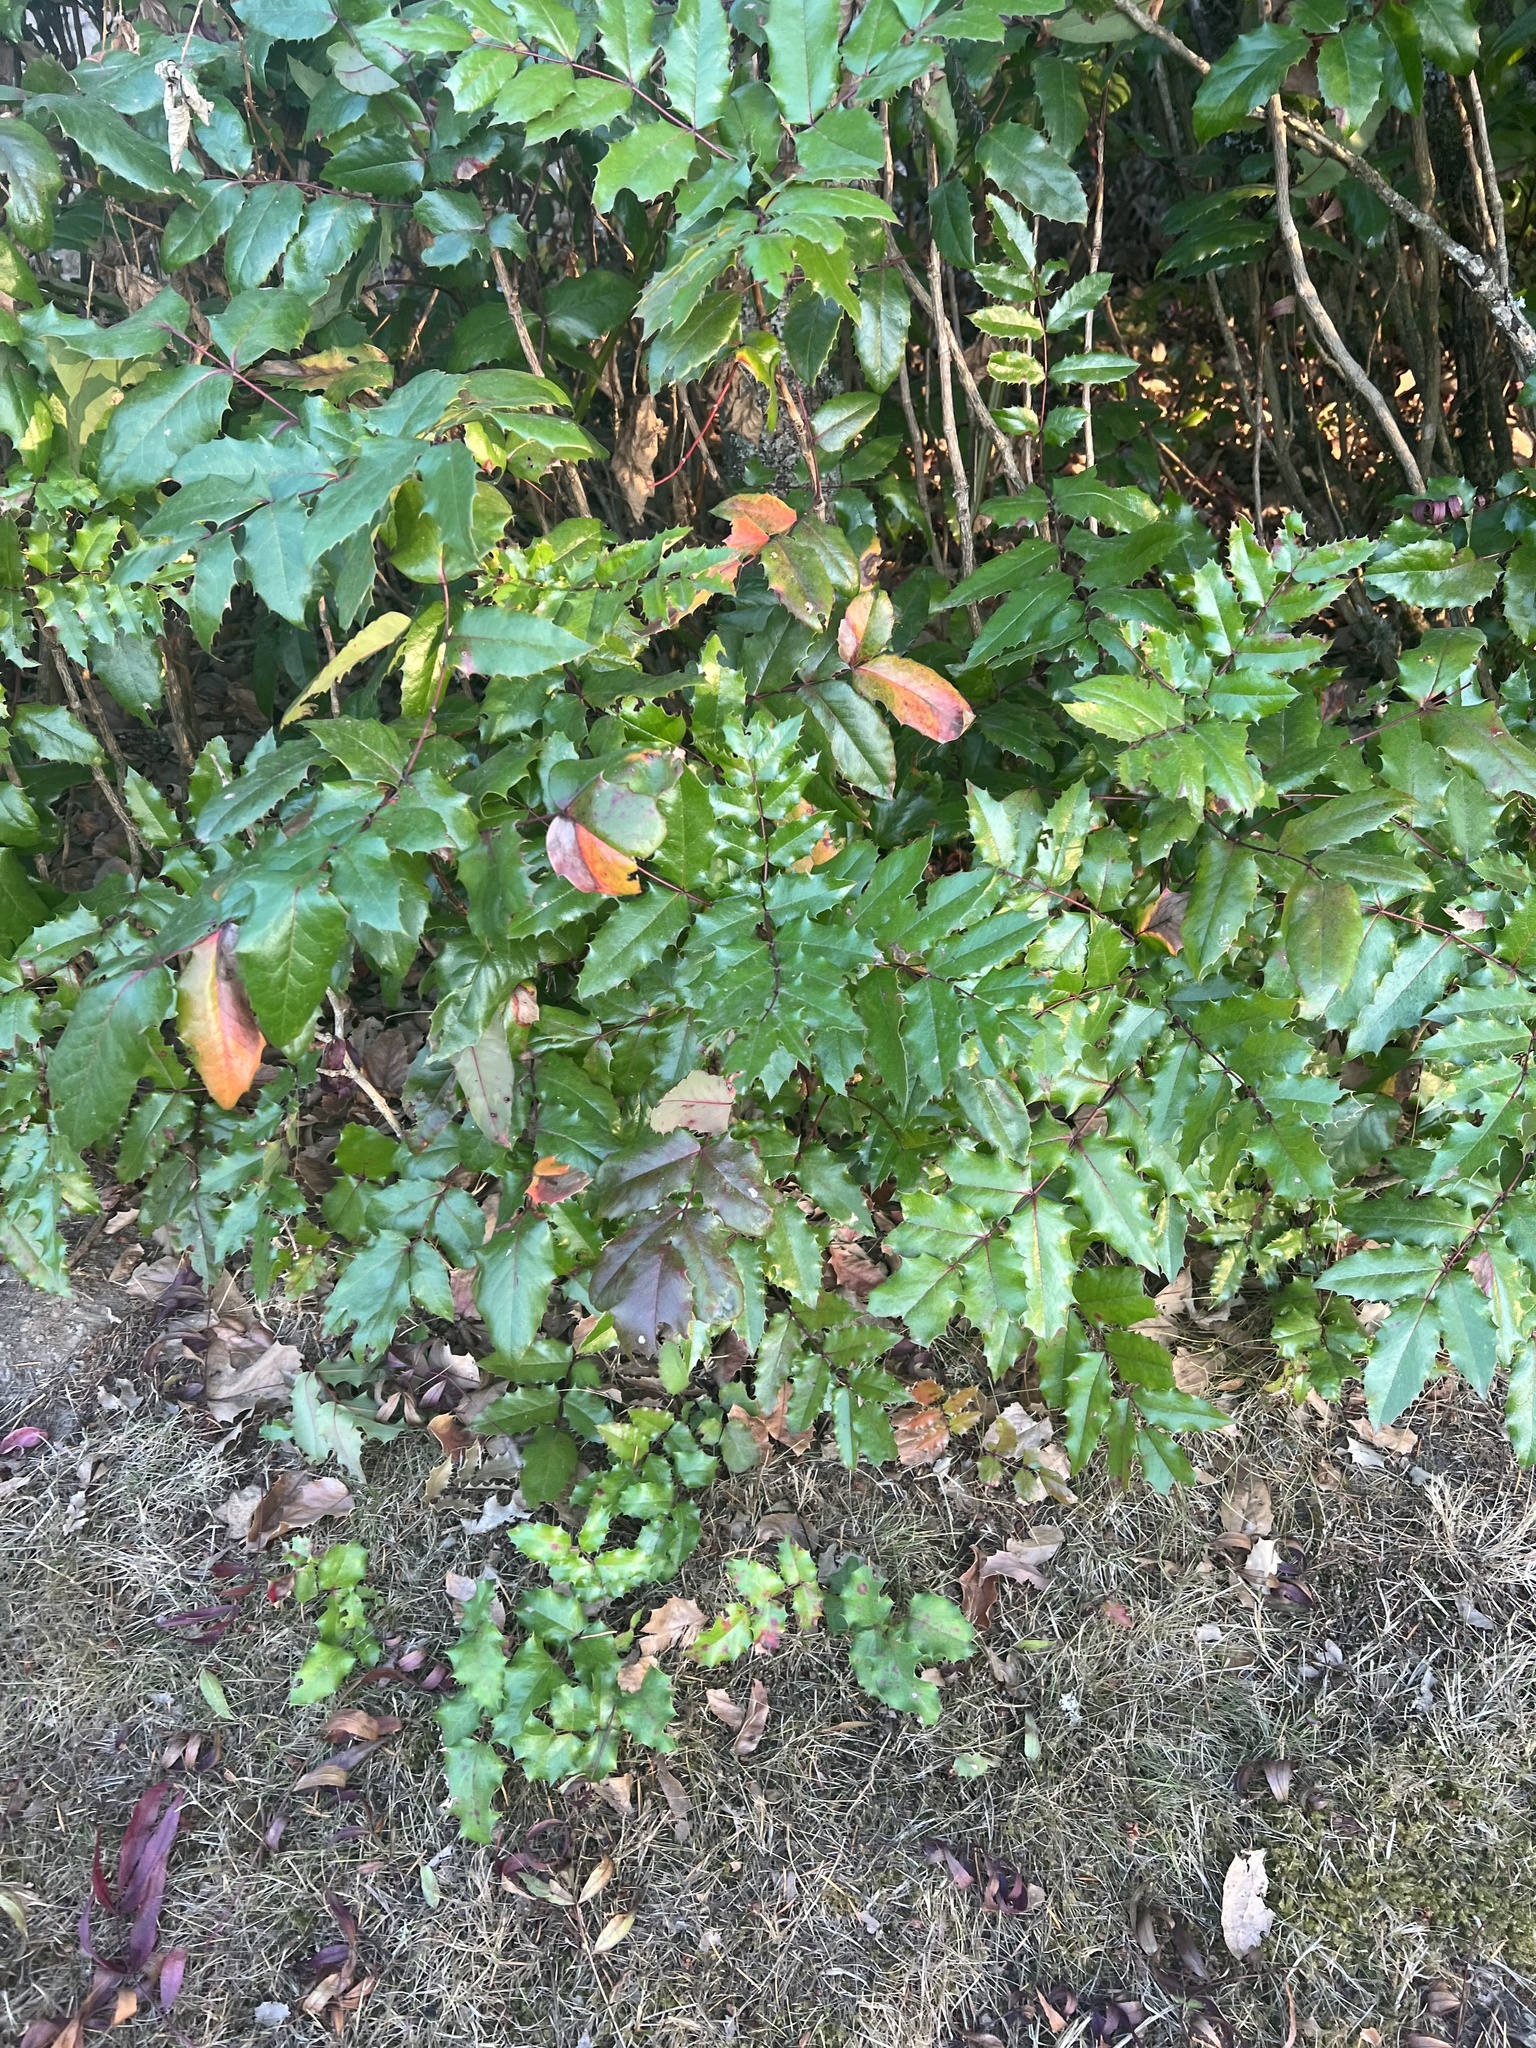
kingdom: Plantae
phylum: Tracheophyta
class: Magnoliopsida
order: Ranunculales
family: Berberidaceae
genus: Mahonia
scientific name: Mahonia aquifolium
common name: Oregon-grape
